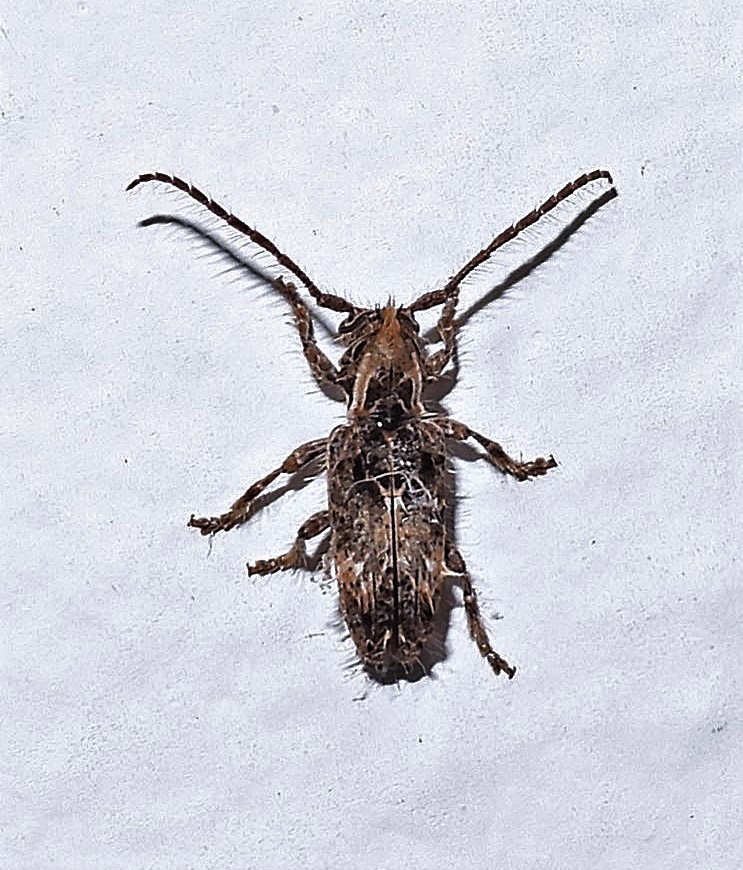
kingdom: Animalia
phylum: Arthropoda
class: Insecta
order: Coleoptera
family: Cerambycidae
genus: Desmiphora
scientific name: Desmiphora hirticollis
